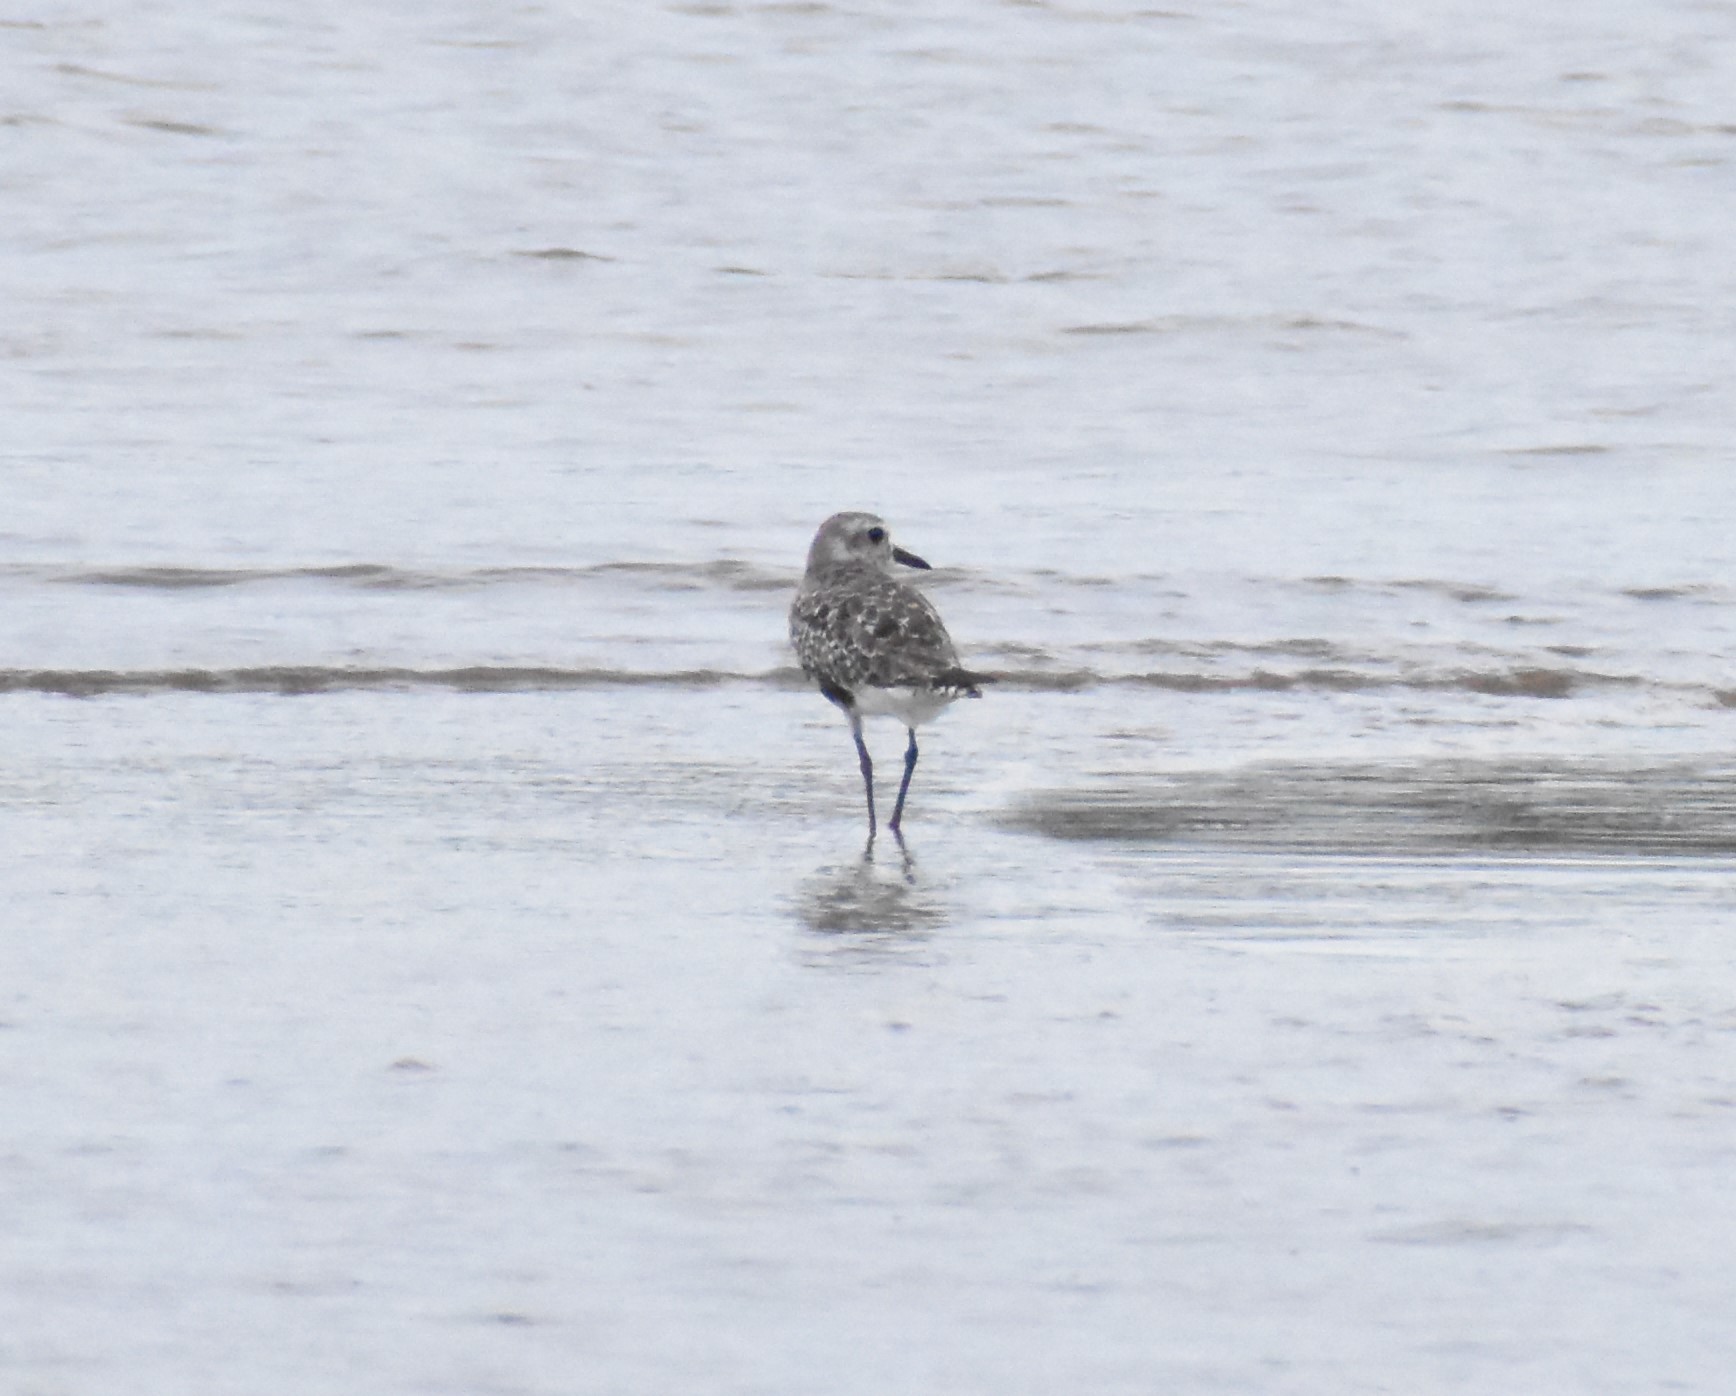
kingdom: Animalia
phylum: Chordata
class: Aves
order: Charadriiformes
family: Charadriidae
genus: Pluvialis
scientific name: Pluvialis squatarola
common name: Grey plover
